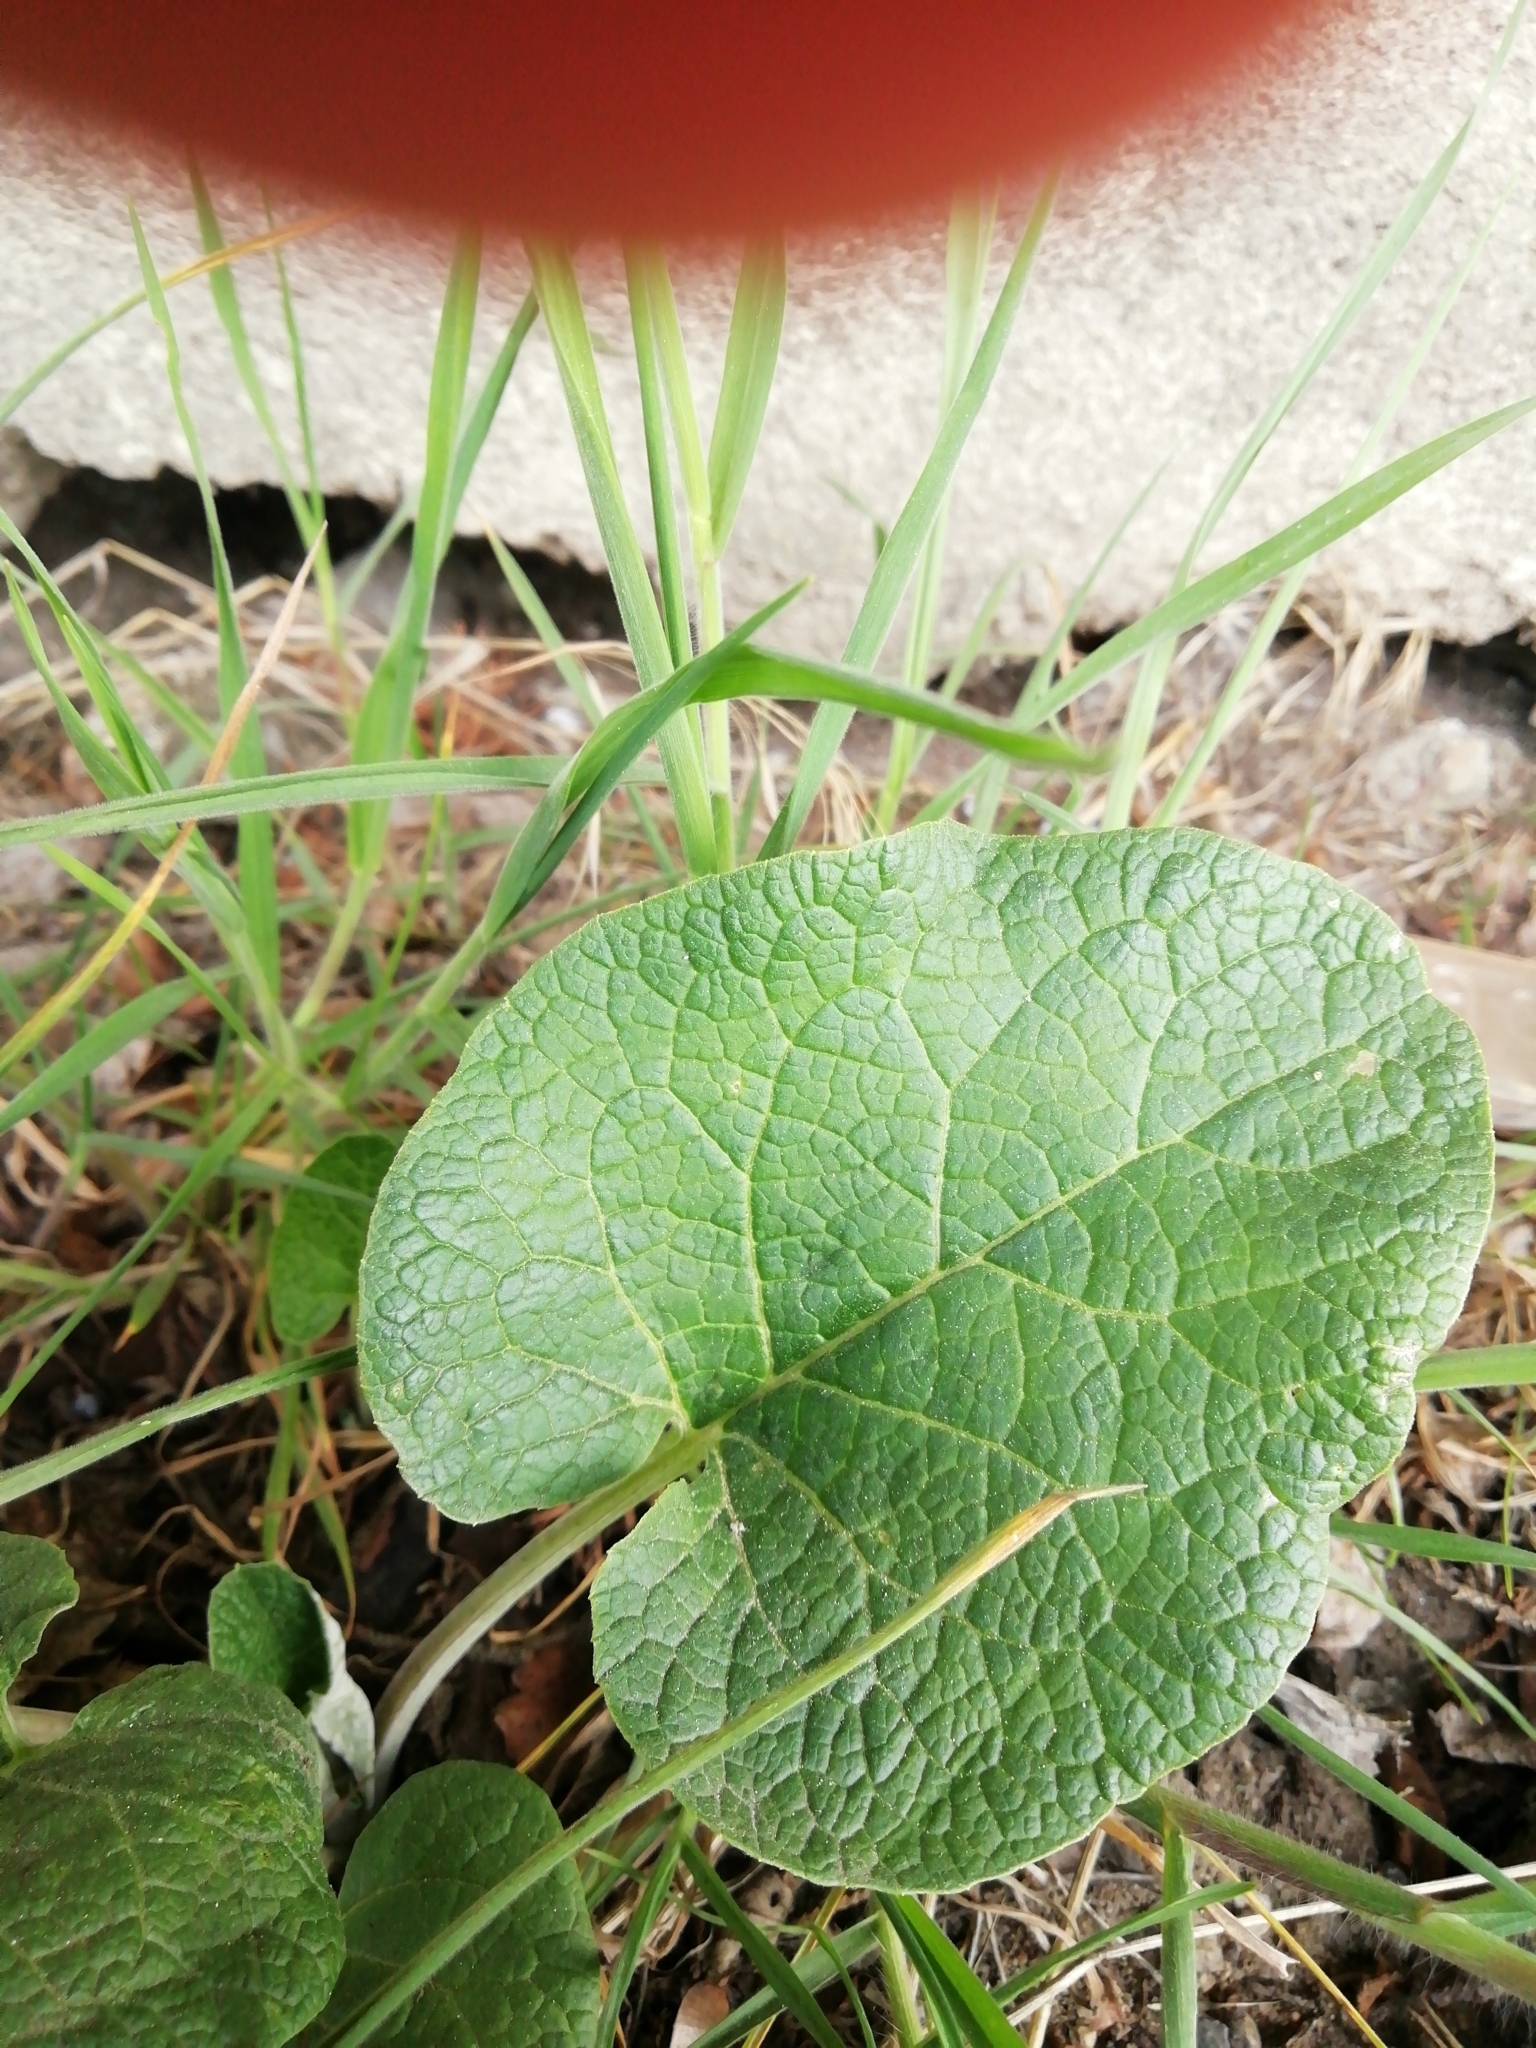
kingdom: Plantae
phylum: Tracheophyta
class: Magnoliopsida
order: Asterales
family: Asteraceae
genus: Arctium
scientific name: Arctium
